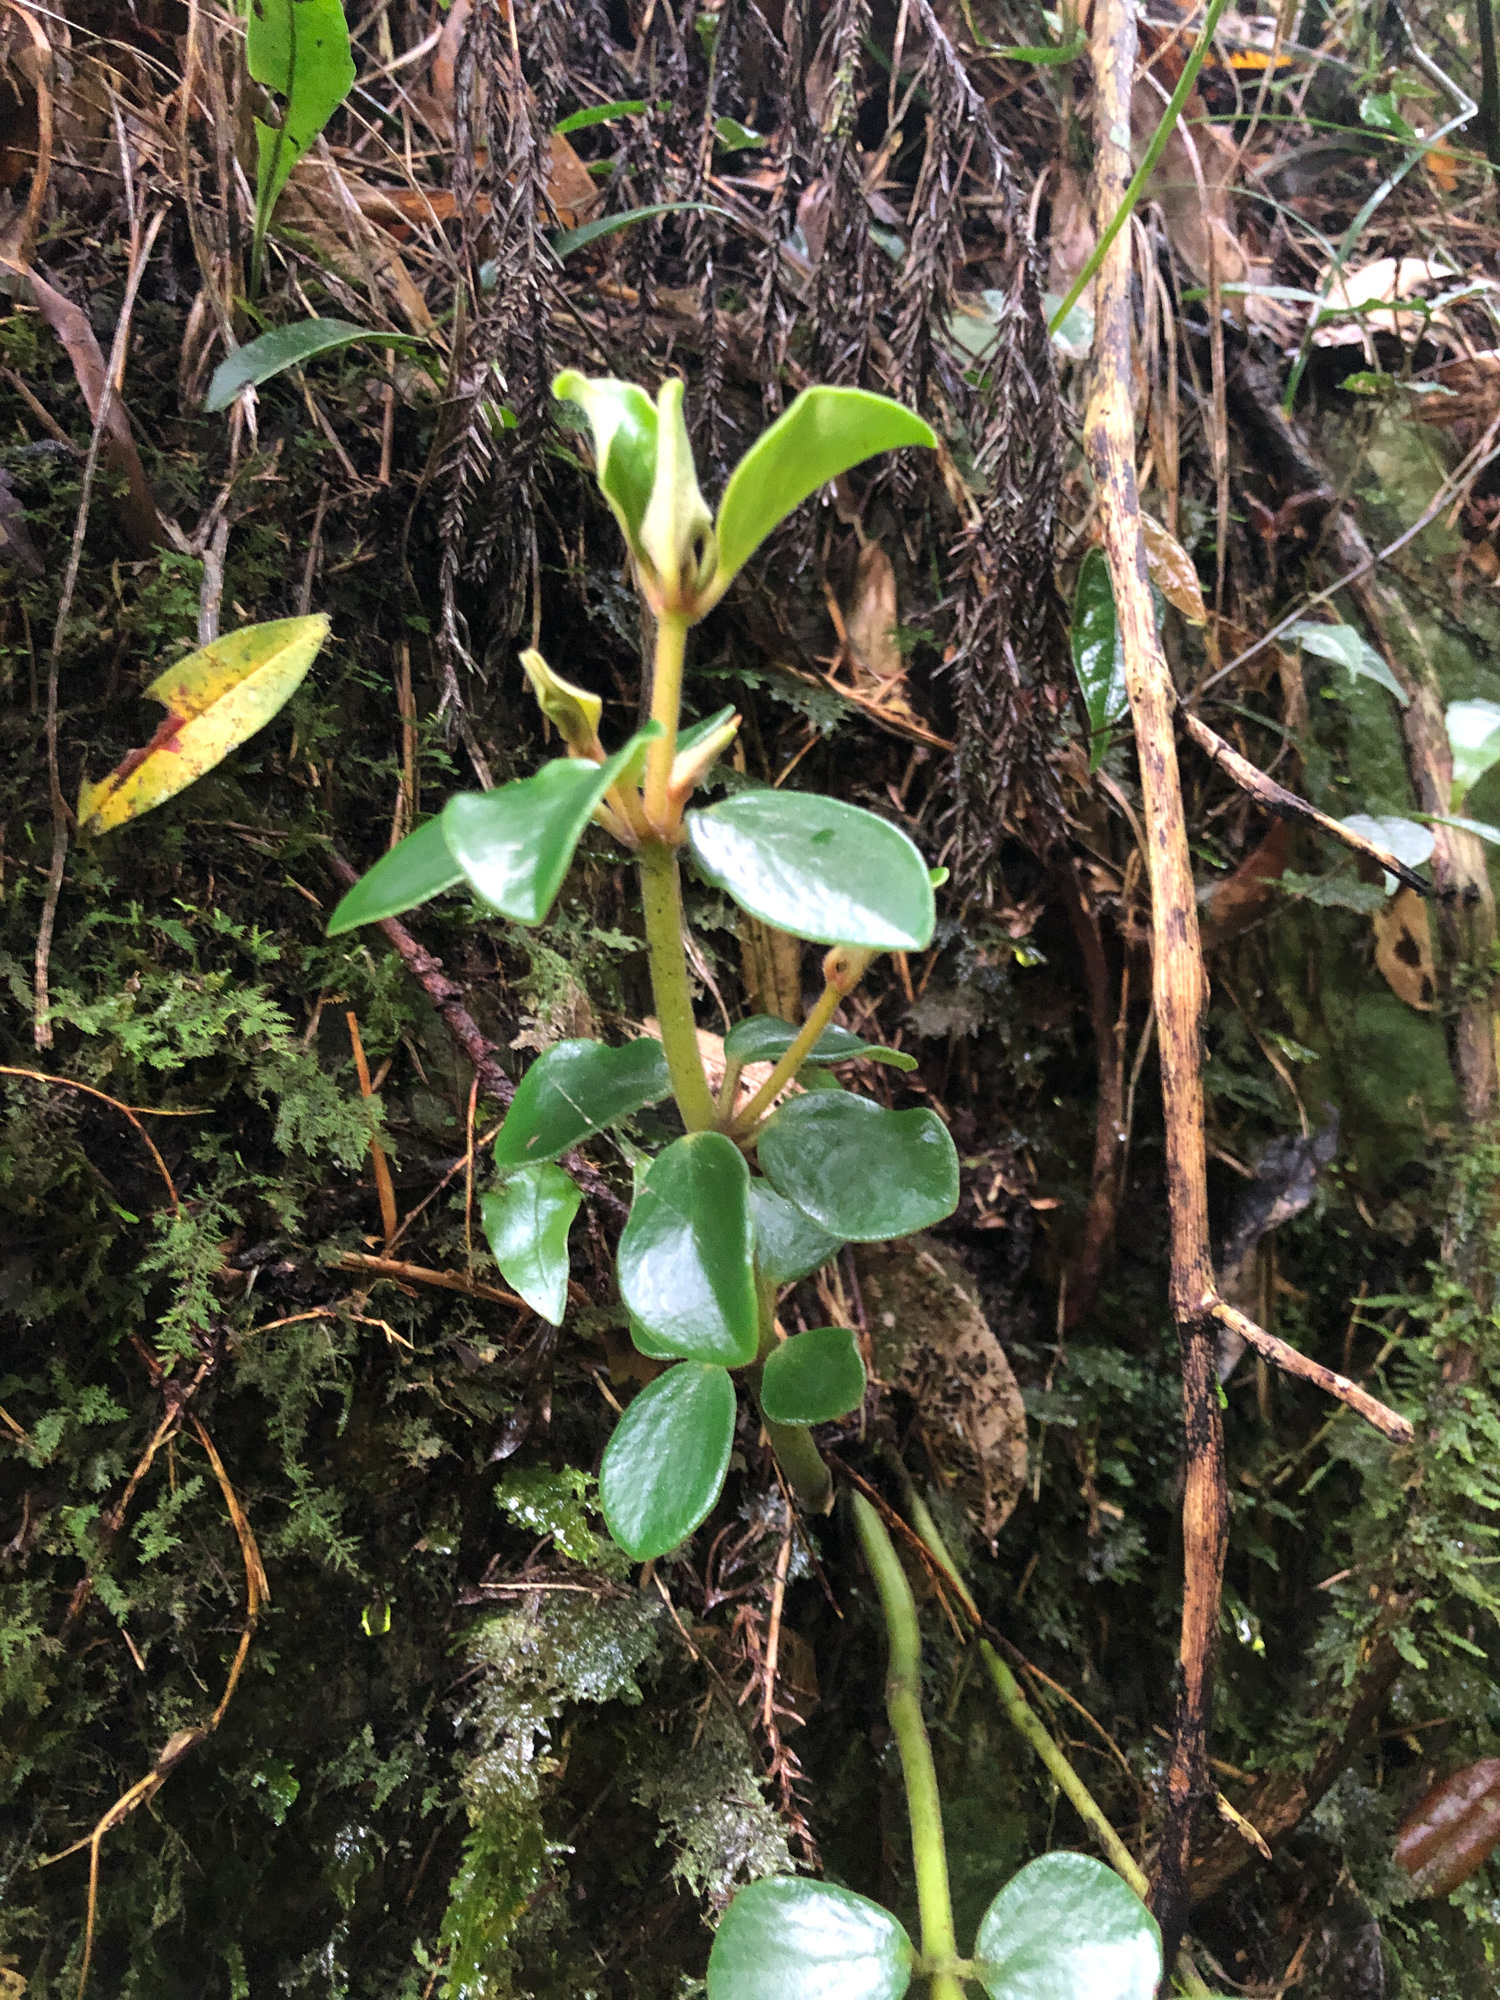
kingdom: Plantae
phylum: Tracheophyta
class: Magnoliopsida
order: Piperales
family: Piperaceae
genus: Peperomia
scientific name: Peperomia japonica
